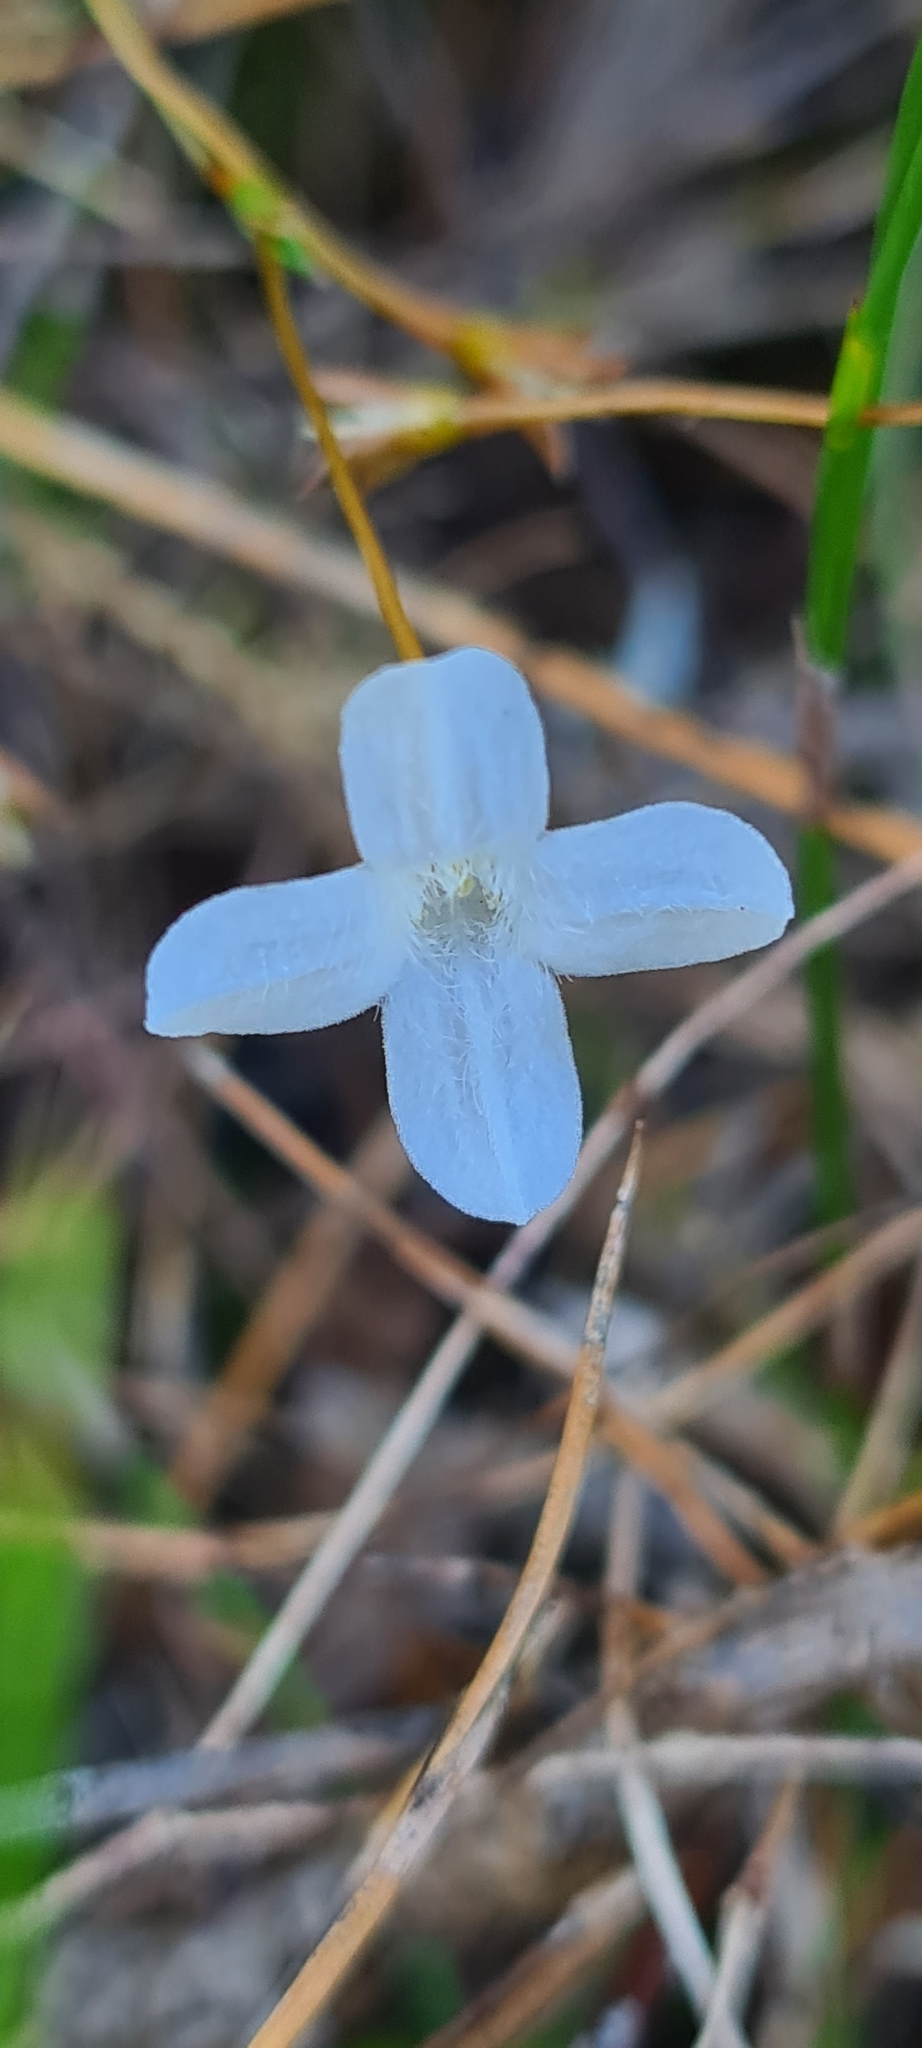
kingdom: Plantae
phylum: Tracheophyta
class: Magnoliopsida
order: Gentianales
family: Loganiaceae
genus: Mitrasacme
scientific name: Mitrasacme polymorpha
